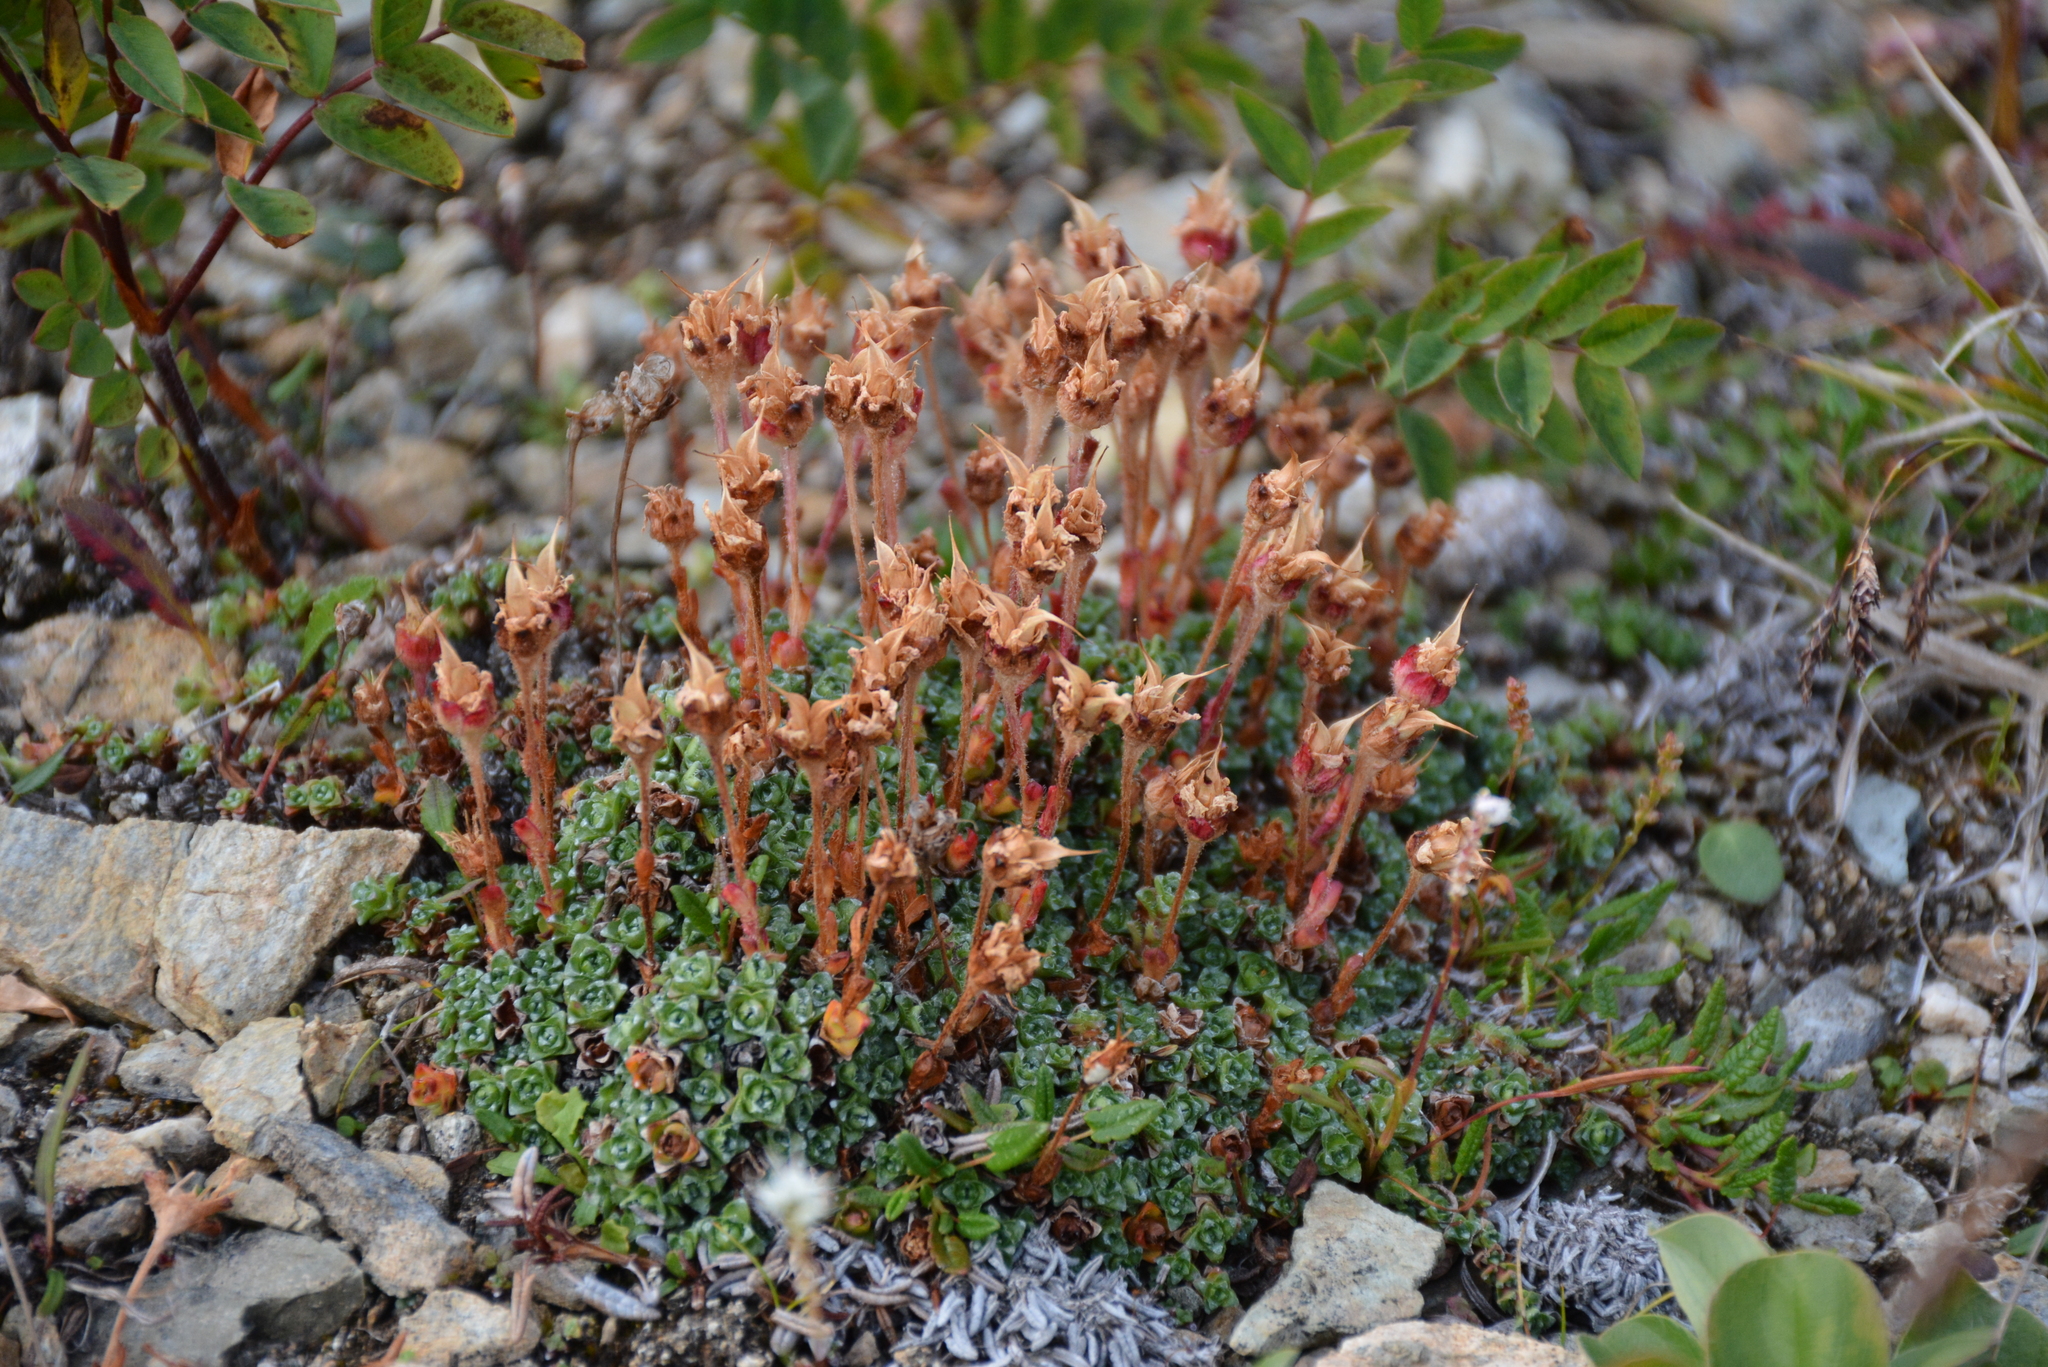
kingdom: Plantae
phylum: Tracheophyta
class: Magnoliopsida
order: Saxifragales
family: Saxifragaceae
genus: Saxifraga
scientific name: Saxifraga oppositifolia
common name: Purple saxifrage
